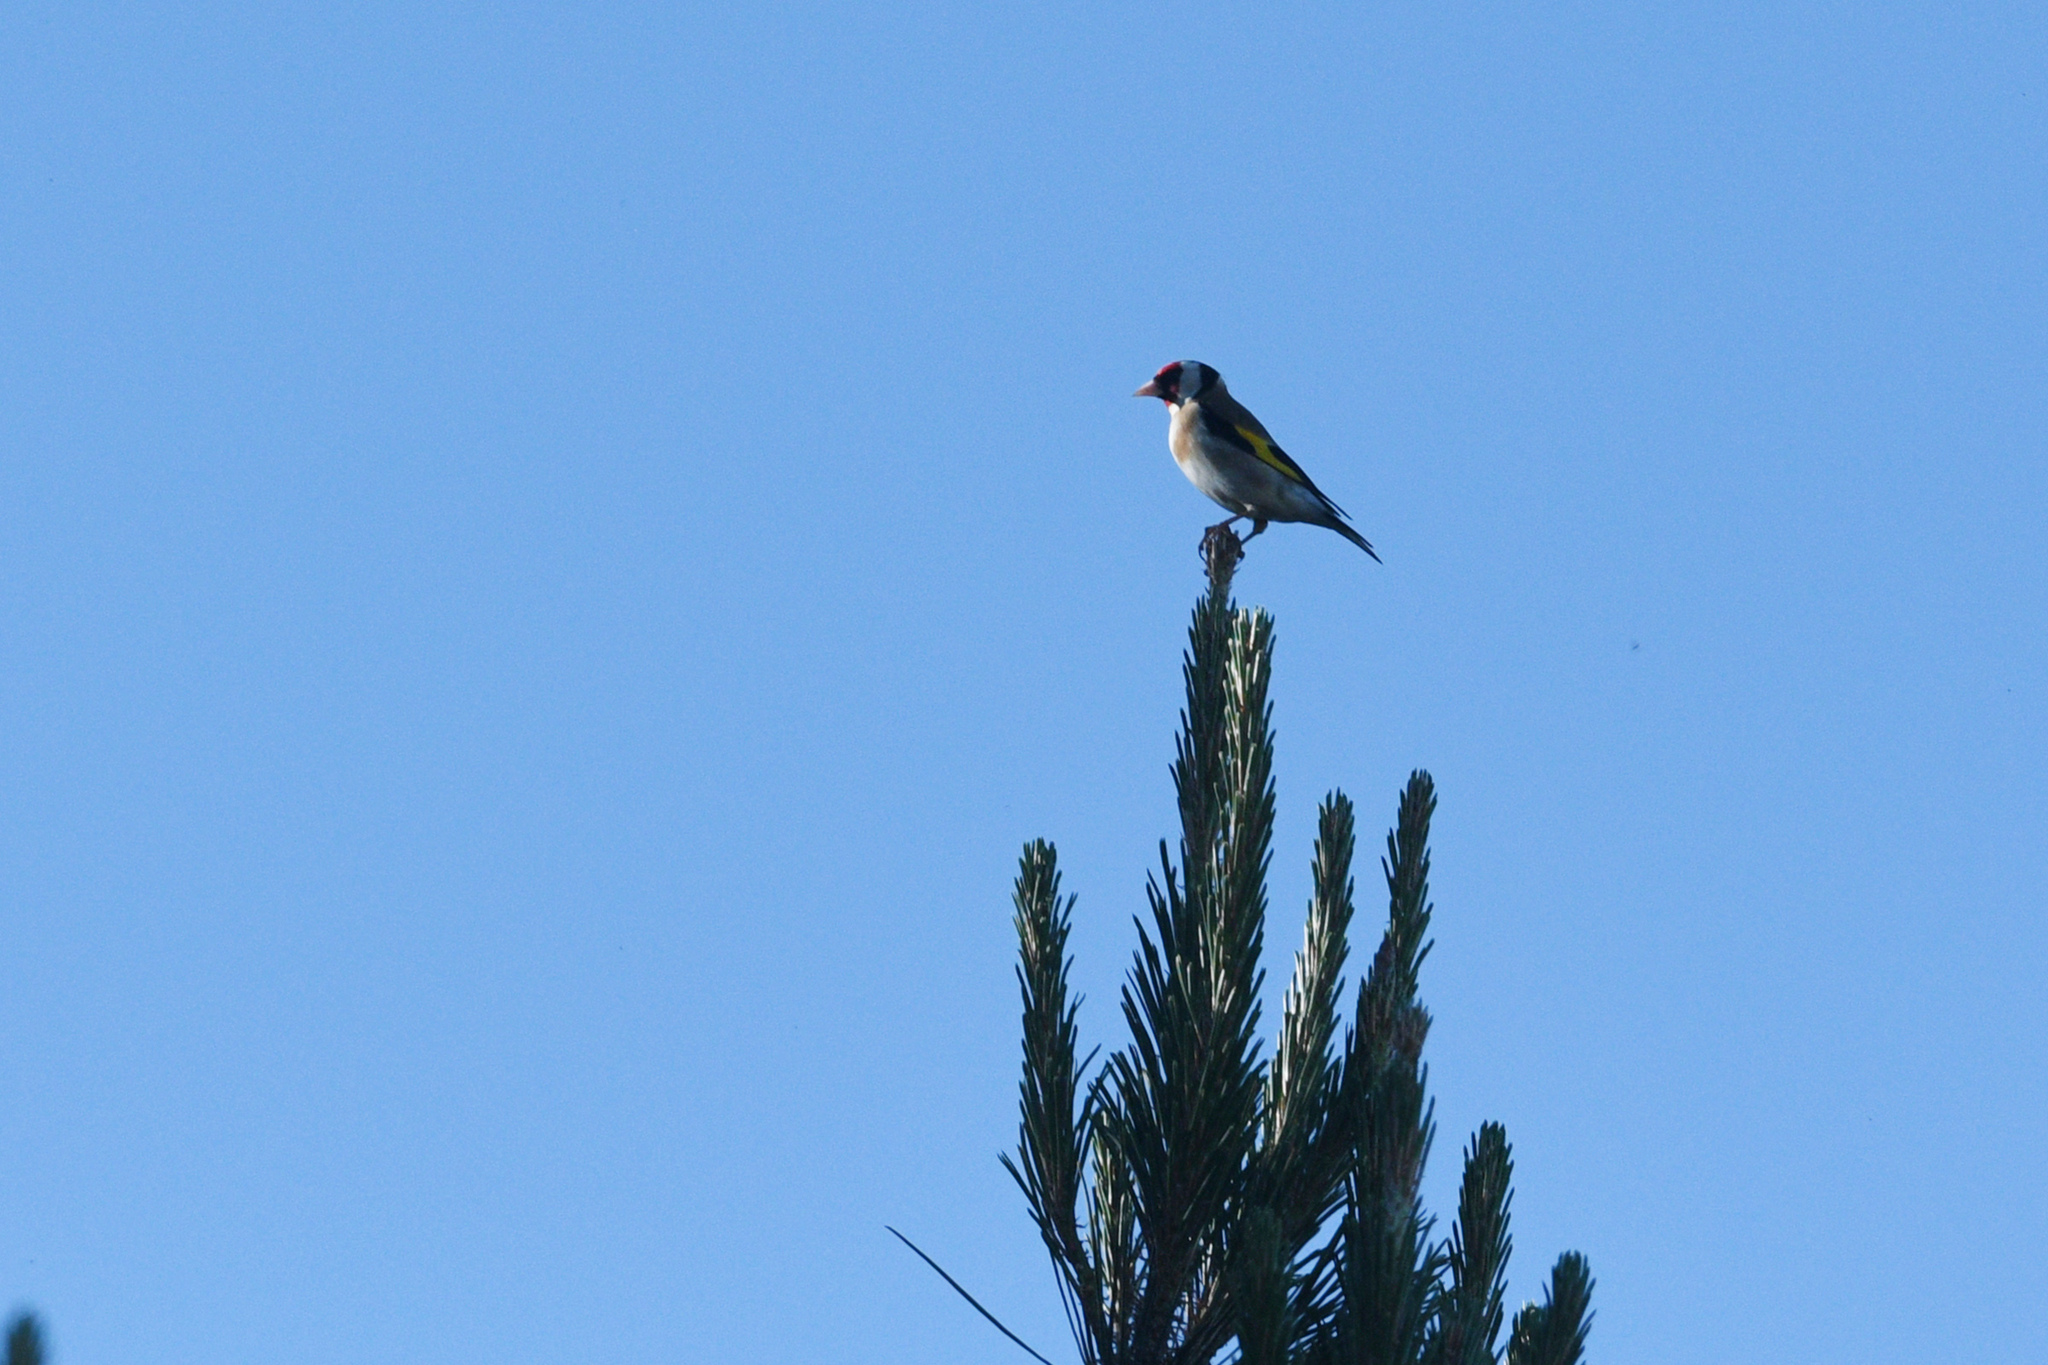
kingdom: Animalia
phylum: Chordata
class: Aves
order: Passeriformes
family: Fringillidae
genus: Carduelis
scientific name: Carduelis carduelis
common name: European goldfinch
